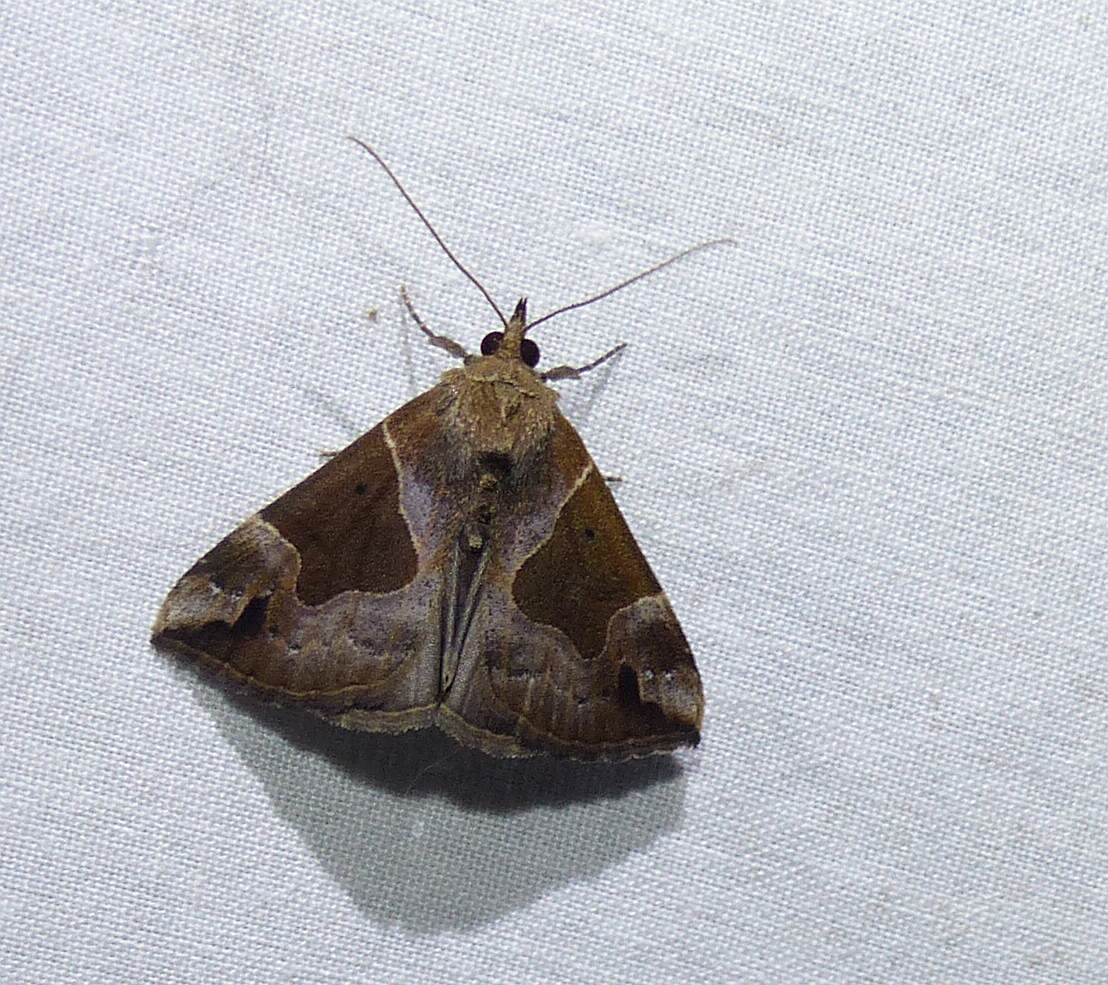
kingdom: Animalia
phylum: Arthropoda
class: Insecta
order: Lepidoptera
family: Erebidae
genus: Hypena
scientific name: Hypena manalis
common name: Flowing-line bomolocha moth
